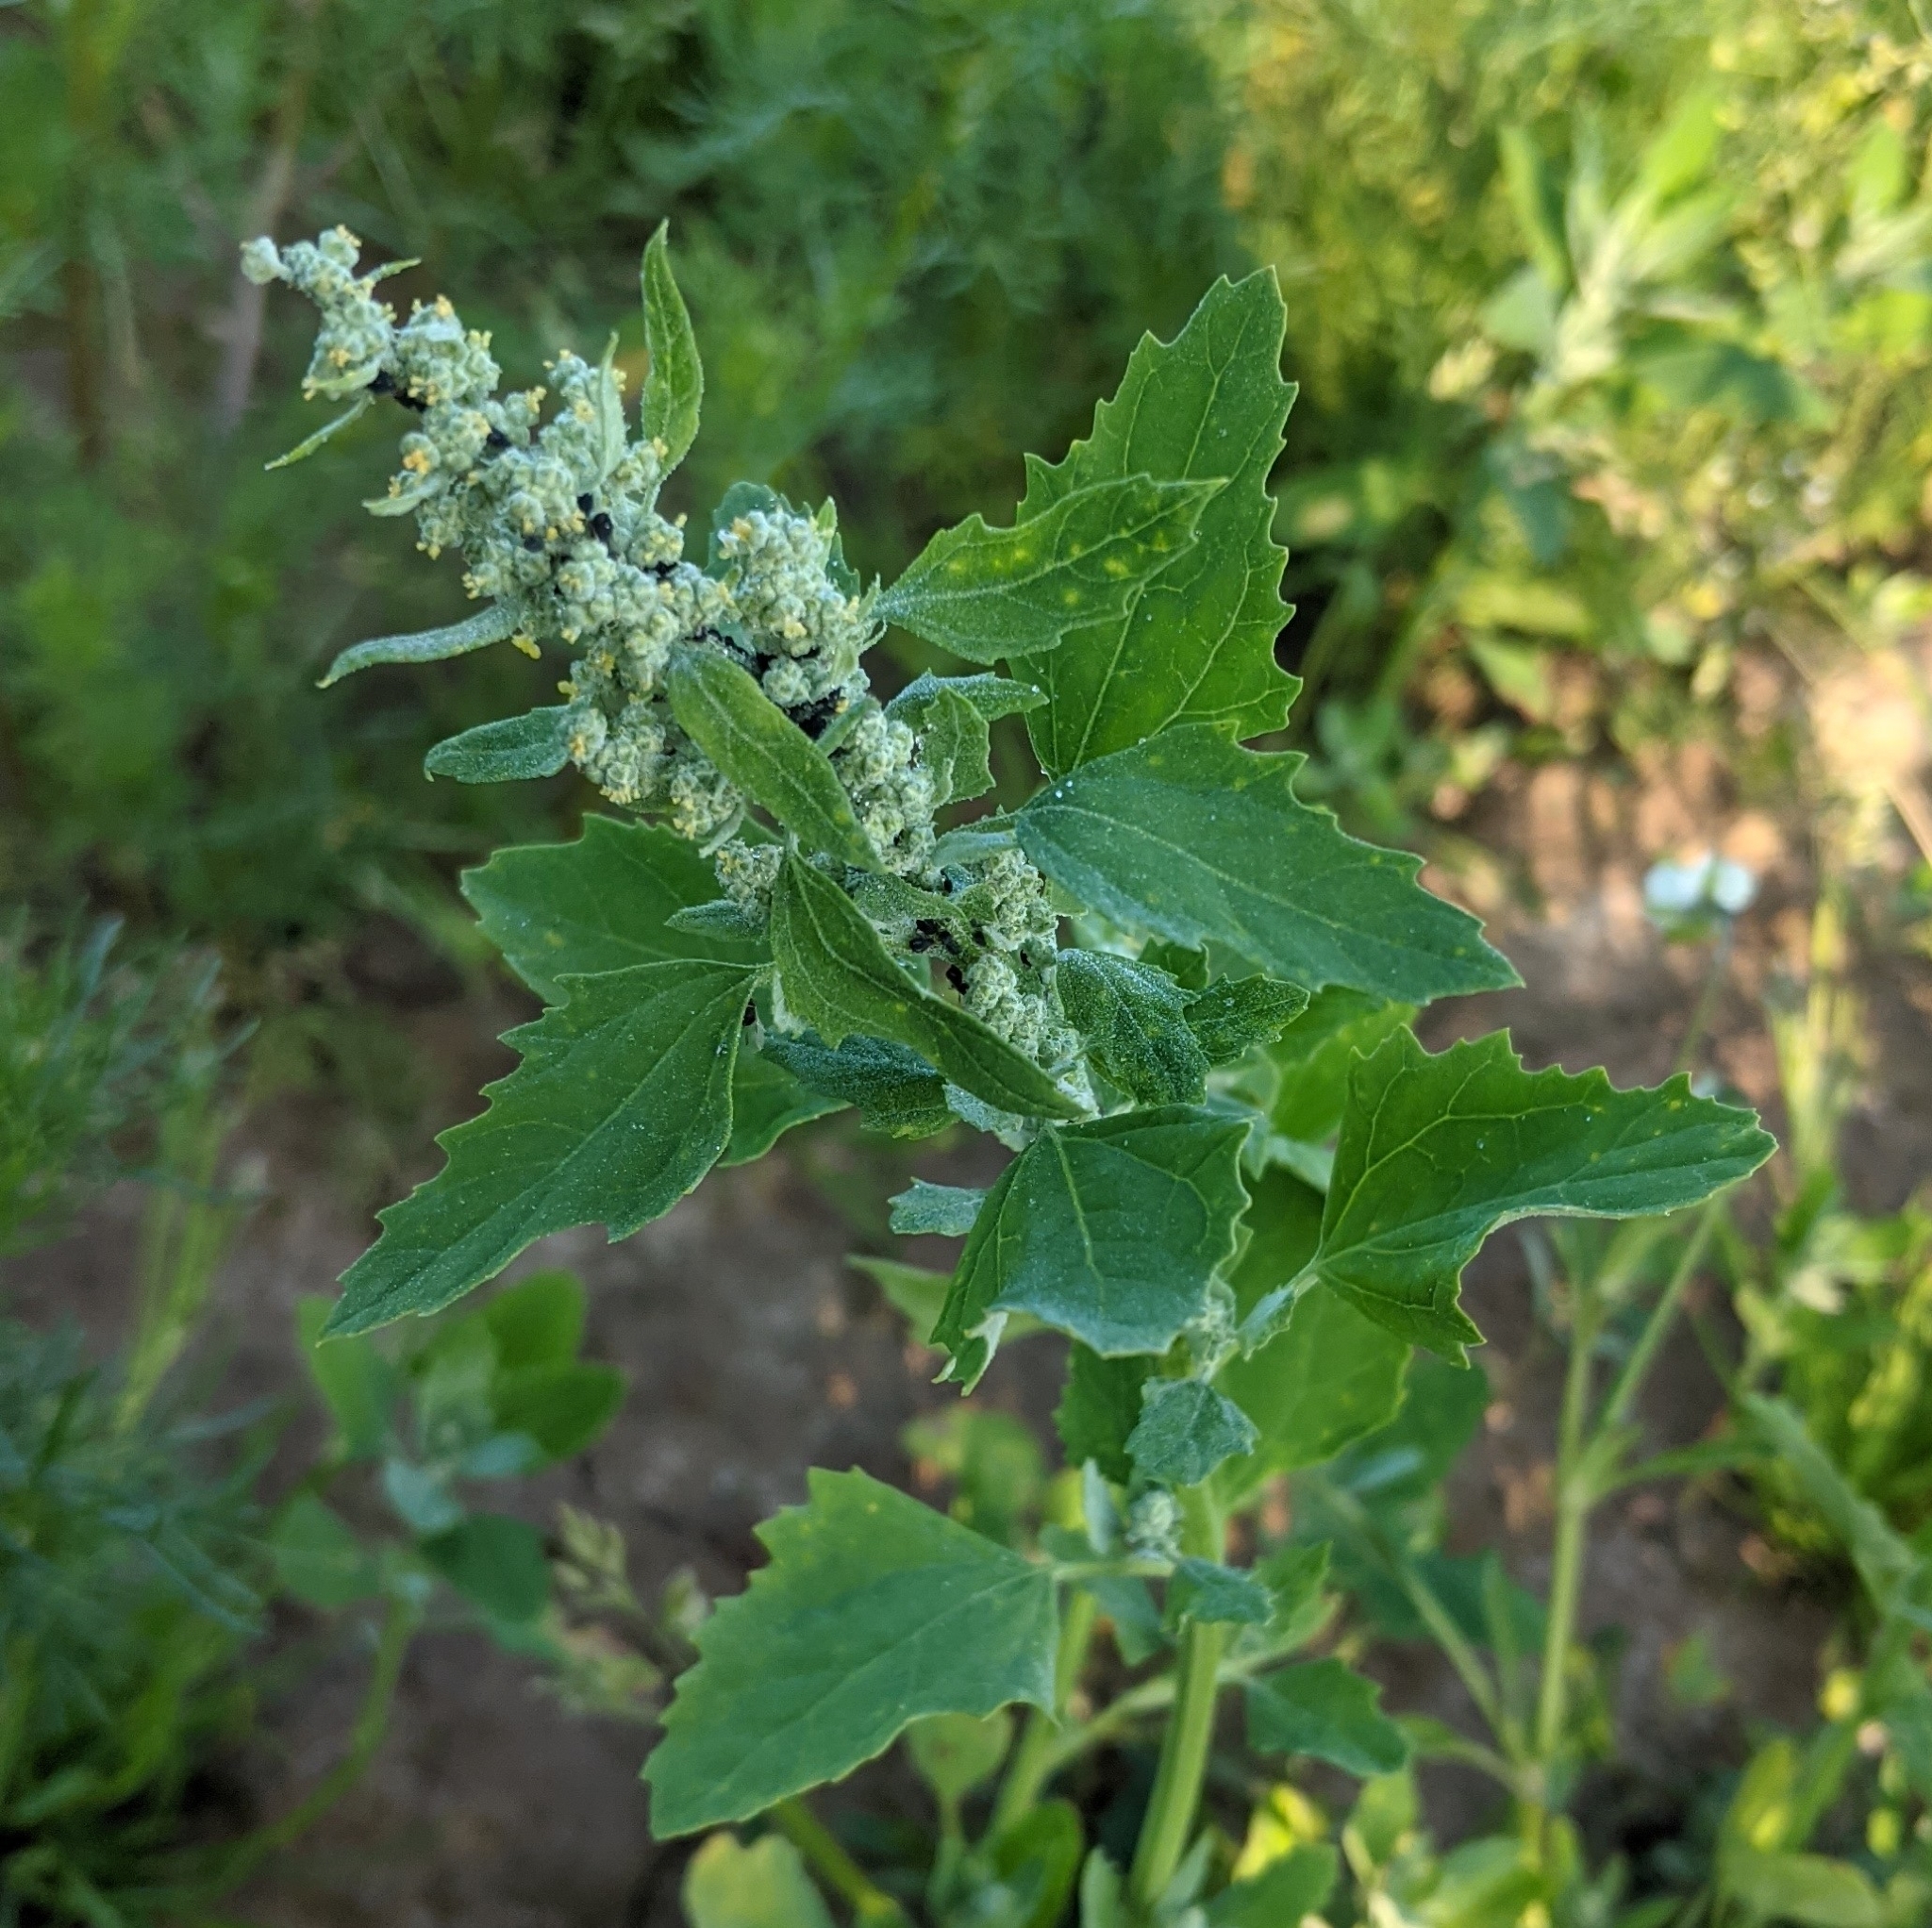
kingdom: Plantae
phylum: Tracheophyta
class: Magnoliopsida
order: Caryophyllales
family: Amaranthaceae
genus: Chenopodium
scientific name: Chenopodium album
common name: Fat-hen
